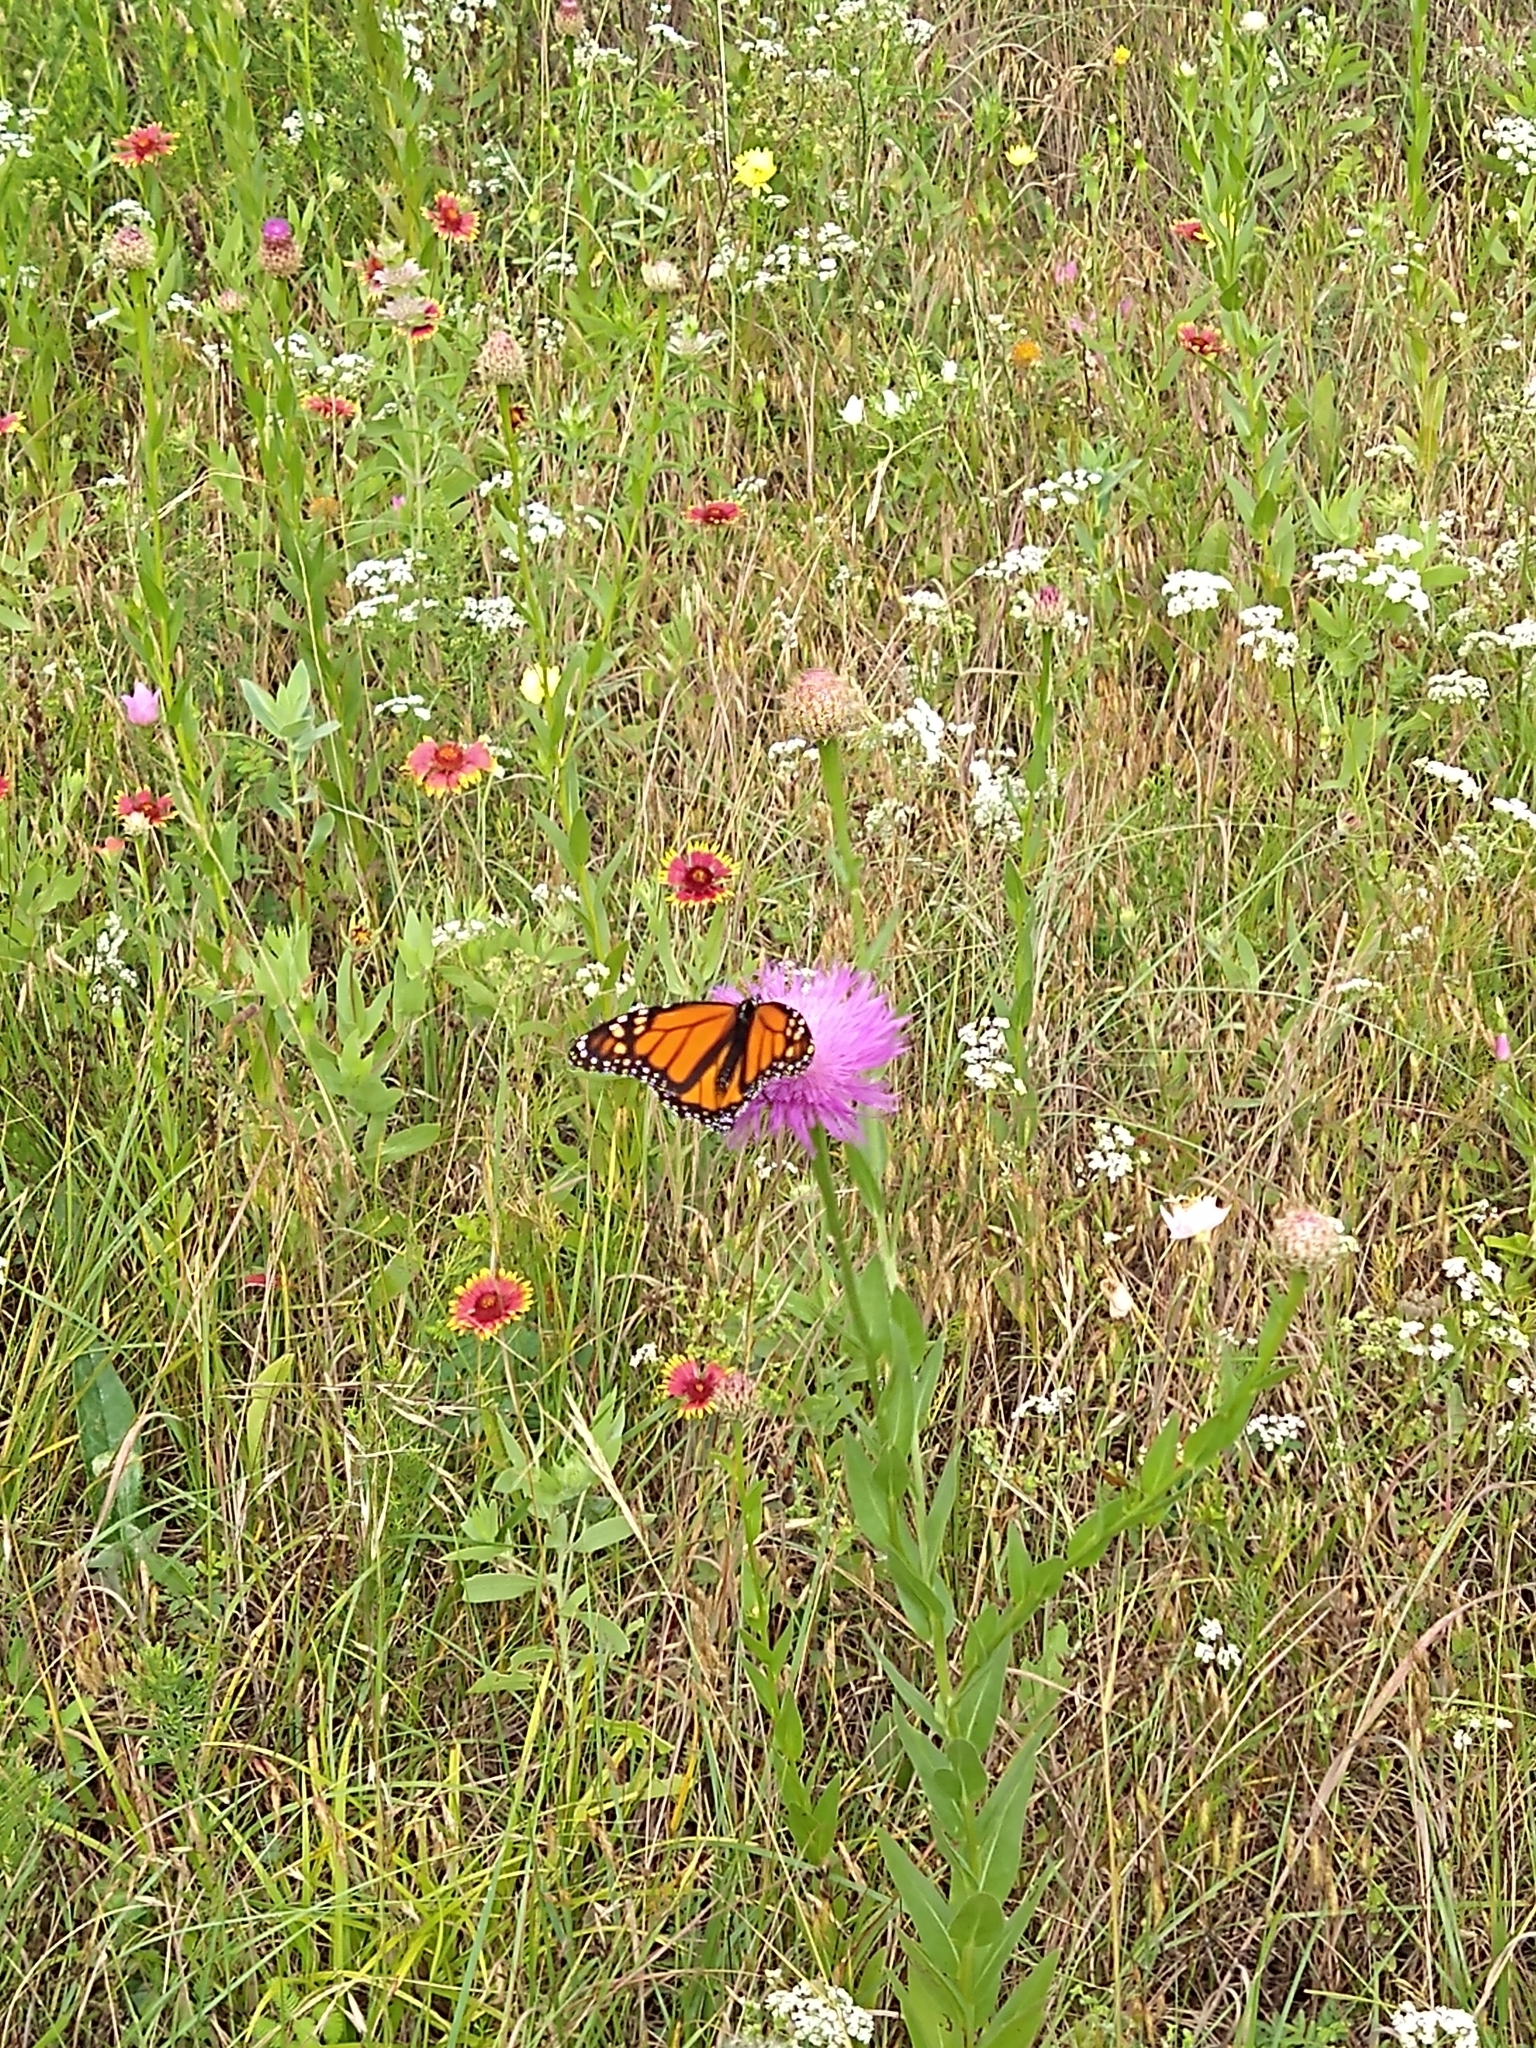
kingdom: Animalia
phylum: Arthropoda
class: Insecta
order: Lepidoptera
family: Nymphalidae
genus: Danaus
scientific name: Danaus plexippus
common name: Monarch
